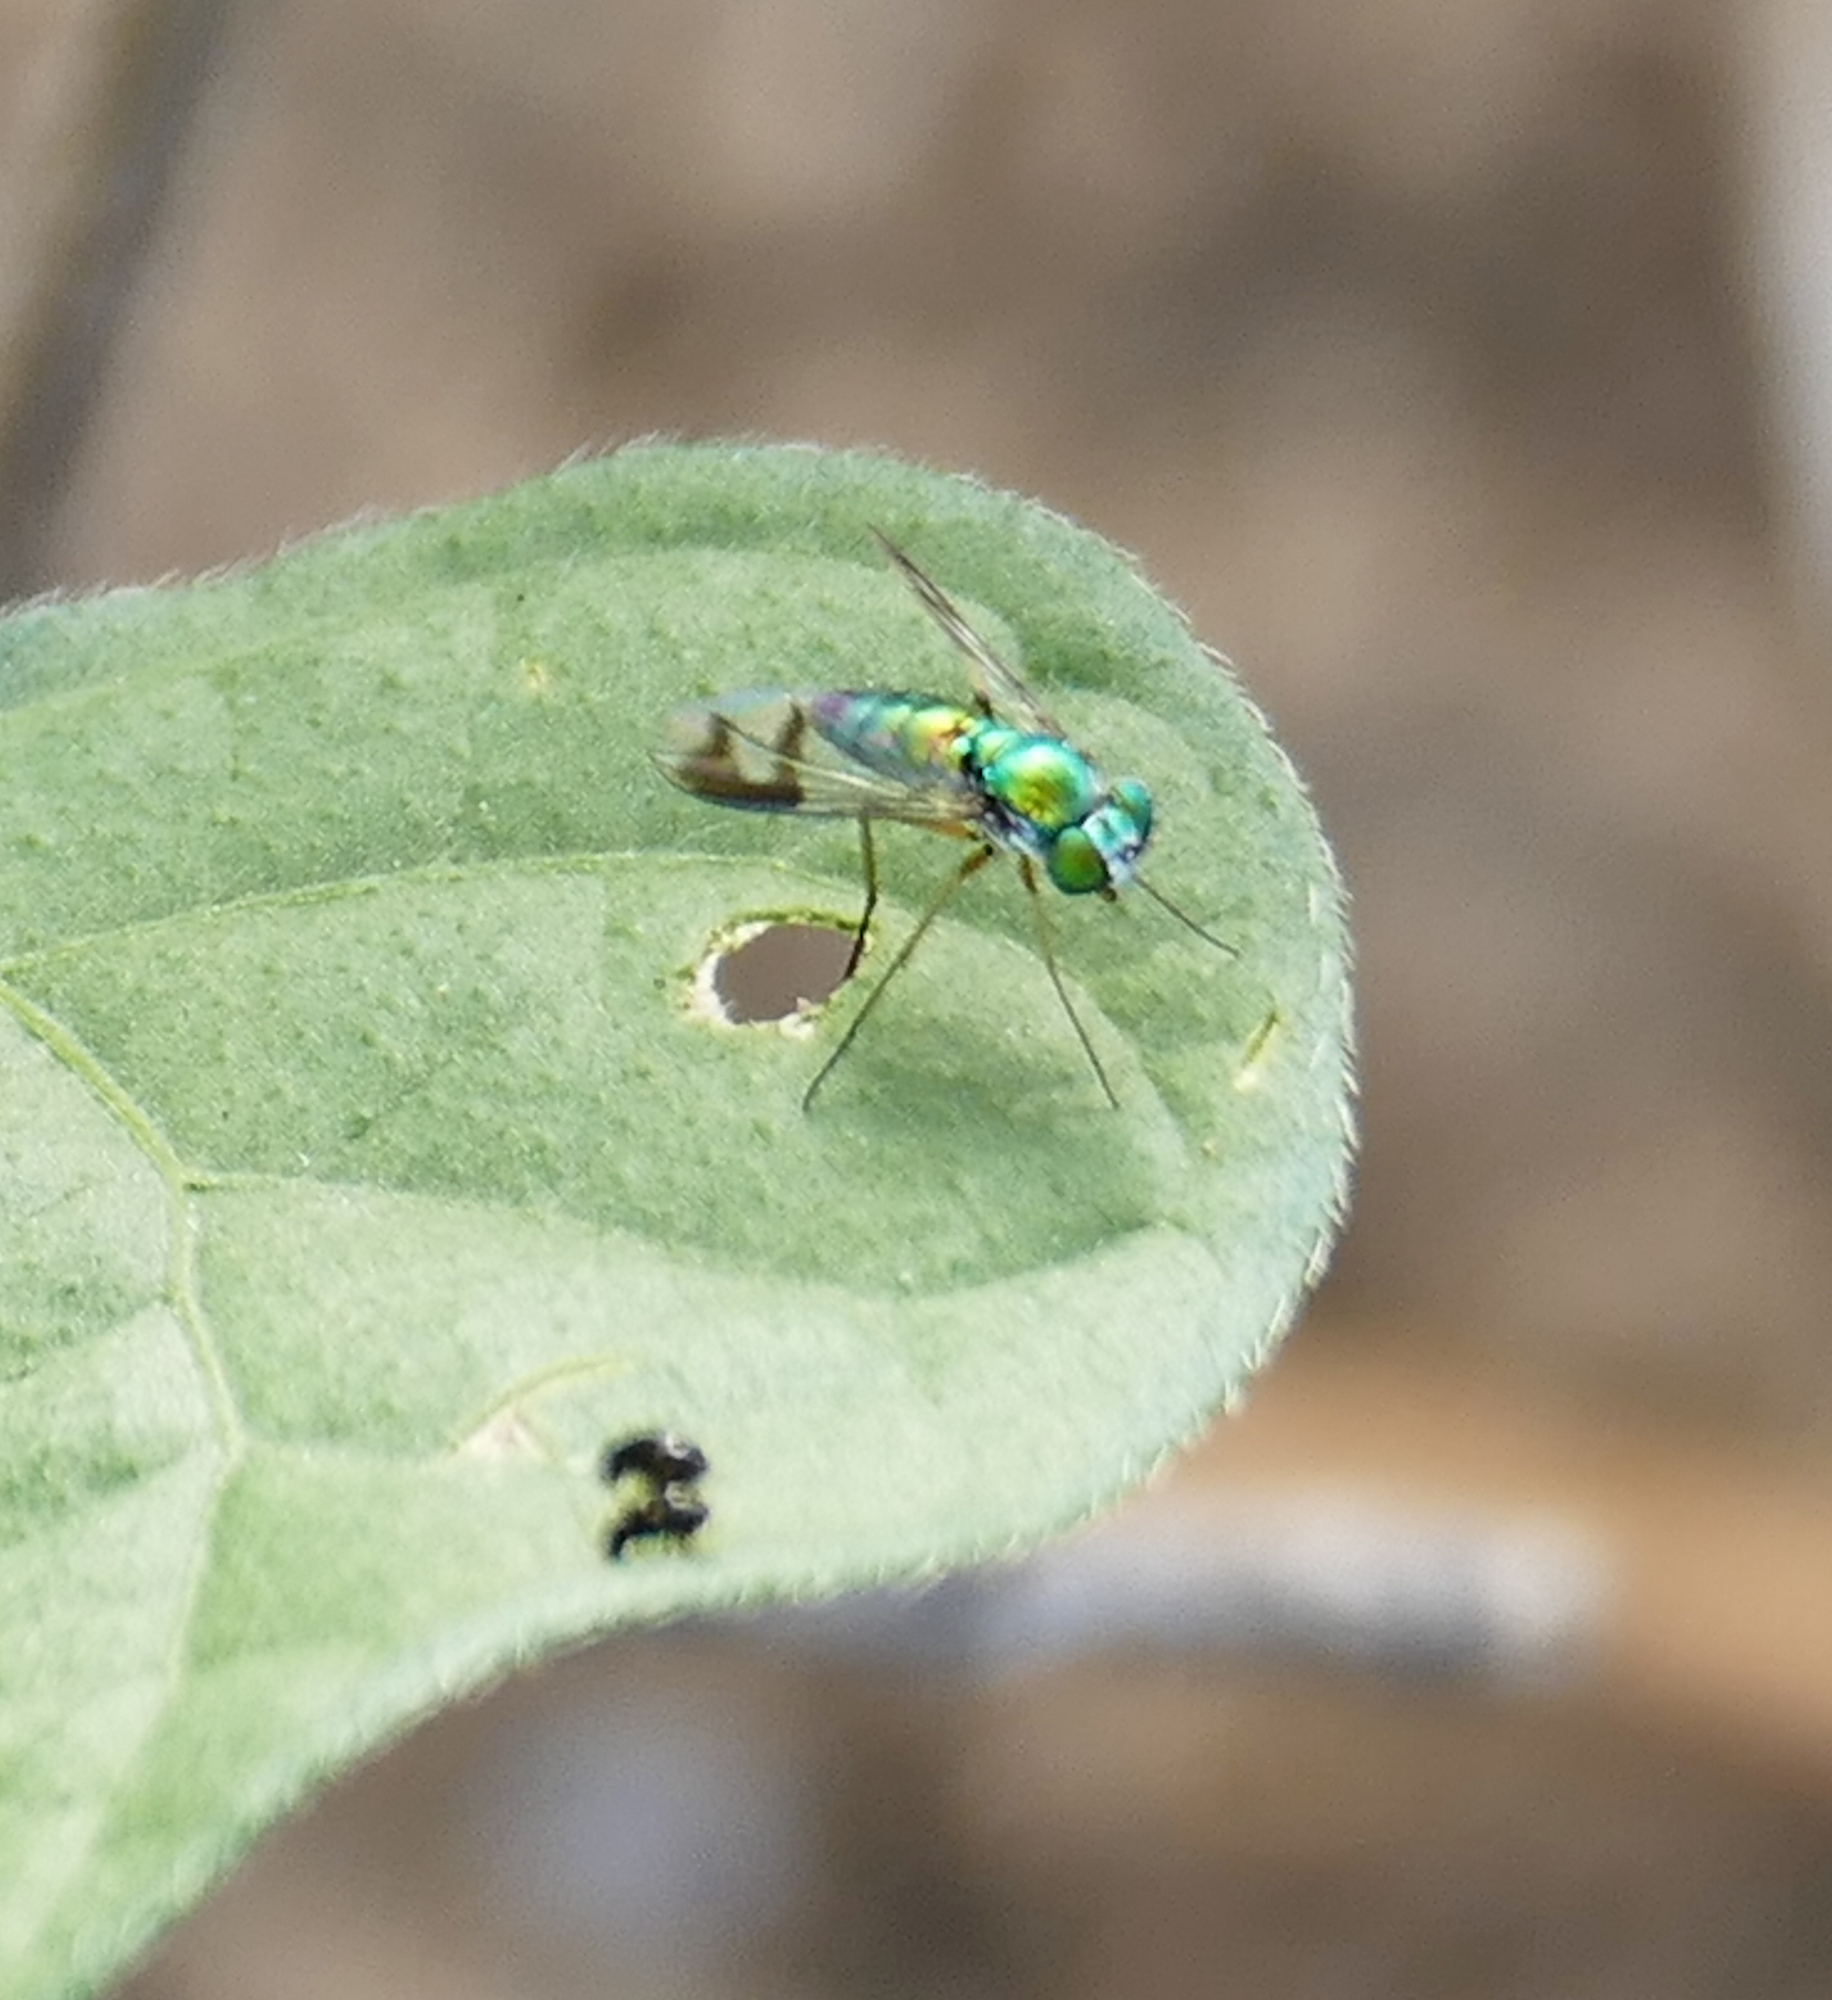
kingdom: Animalia
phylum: Arthropoda
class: Insecta
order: Diptera
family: Dolichopodidae
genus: Condylostylus
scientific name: Condylostylus quadricolor
